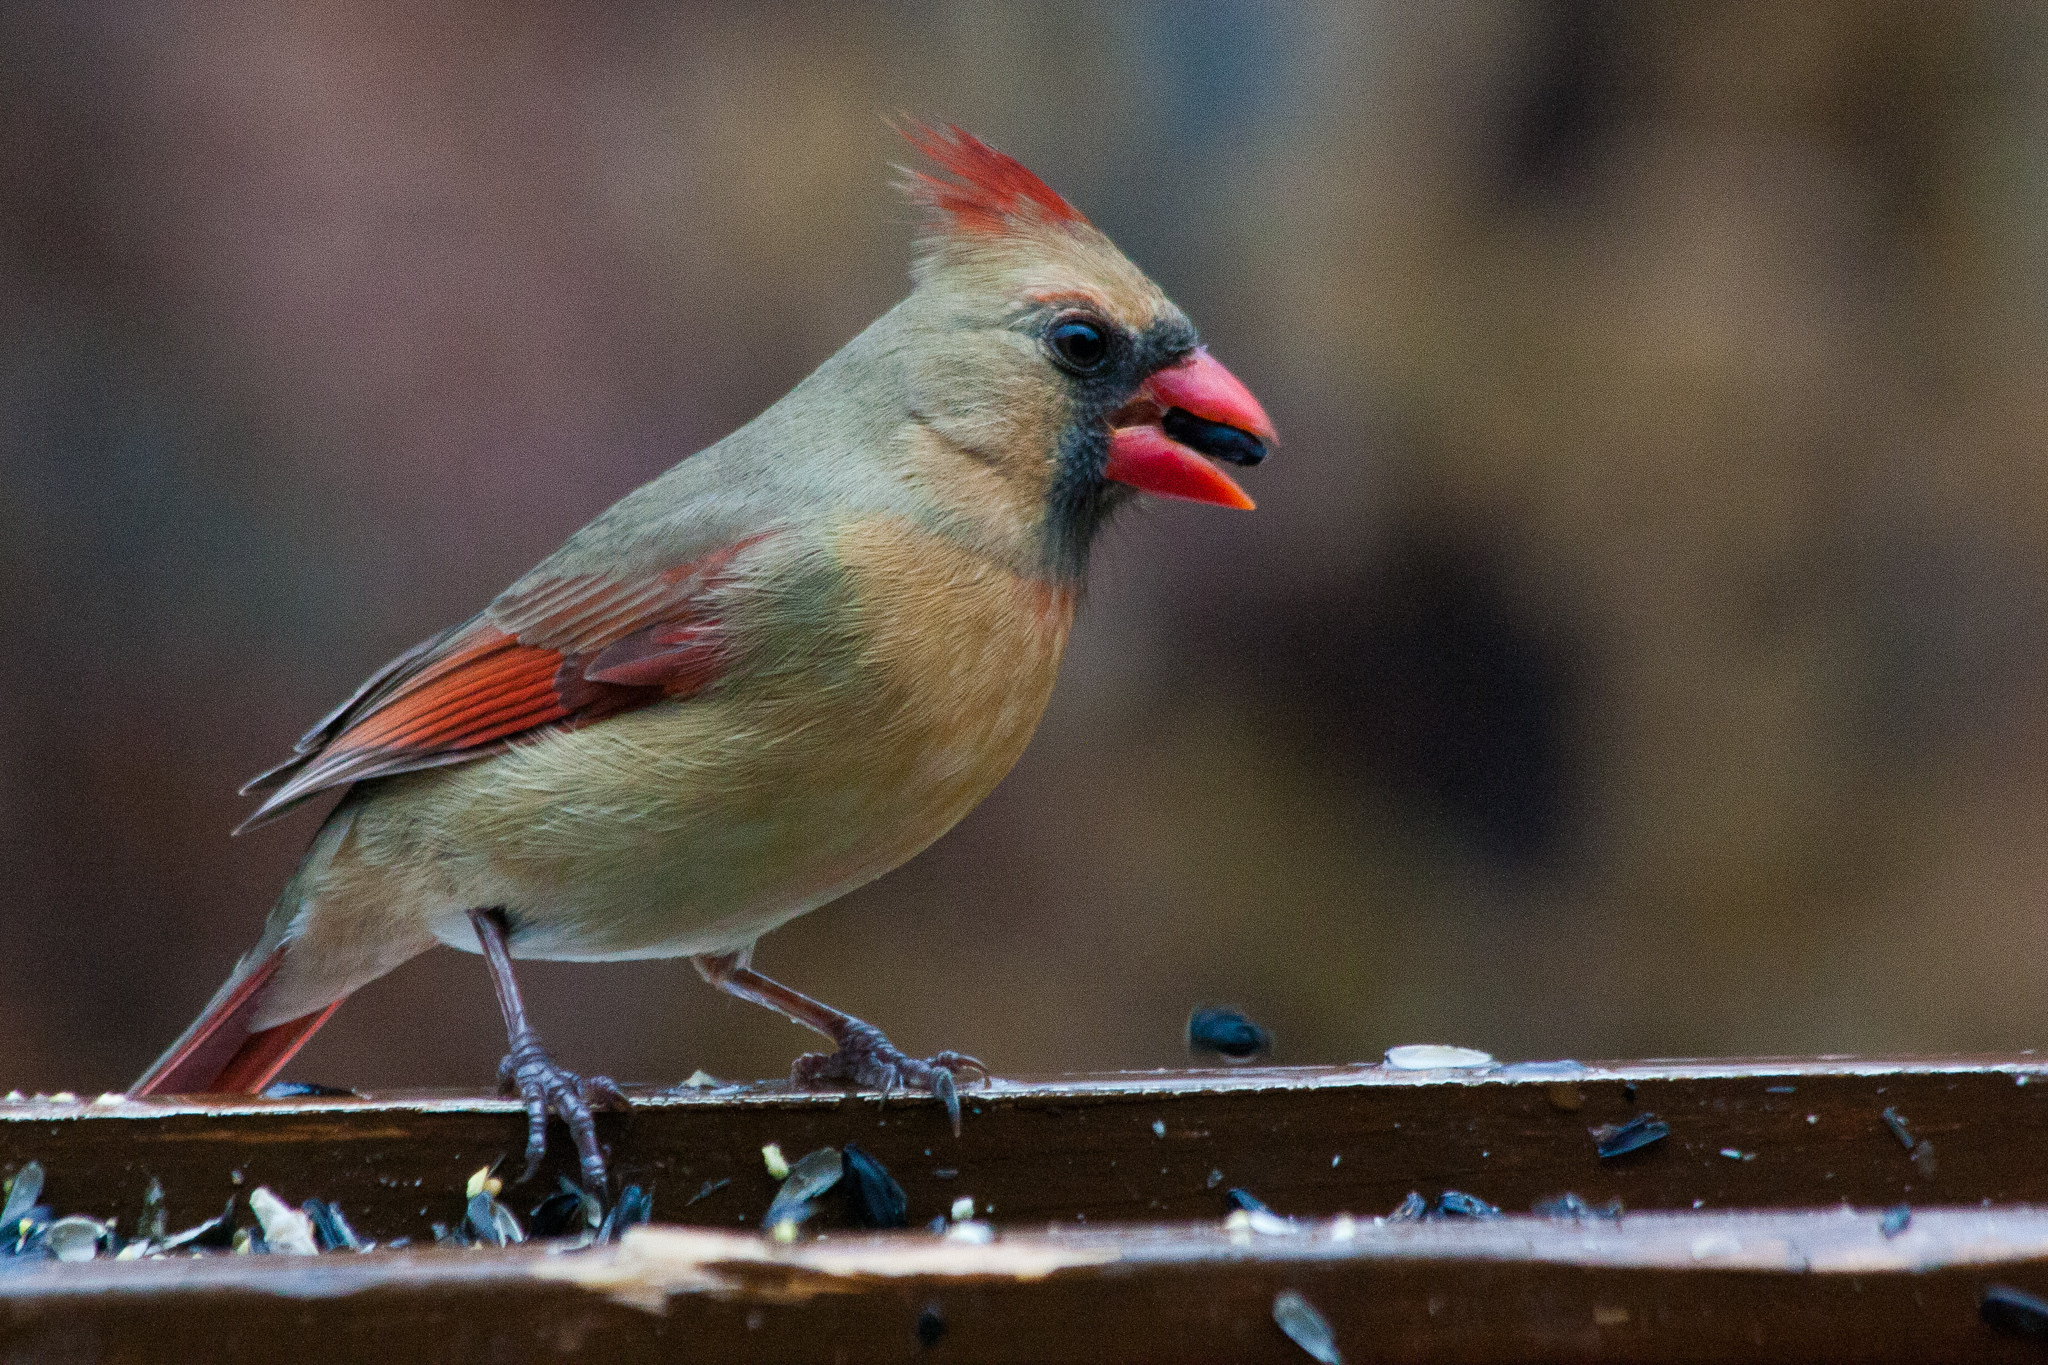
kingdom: Animalia
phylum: Chordata
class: Aves
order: Passeriformes
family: Cardinalidae
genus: Cardinalis
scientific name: Cardinalis cardinalis
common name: Northern cardinal
